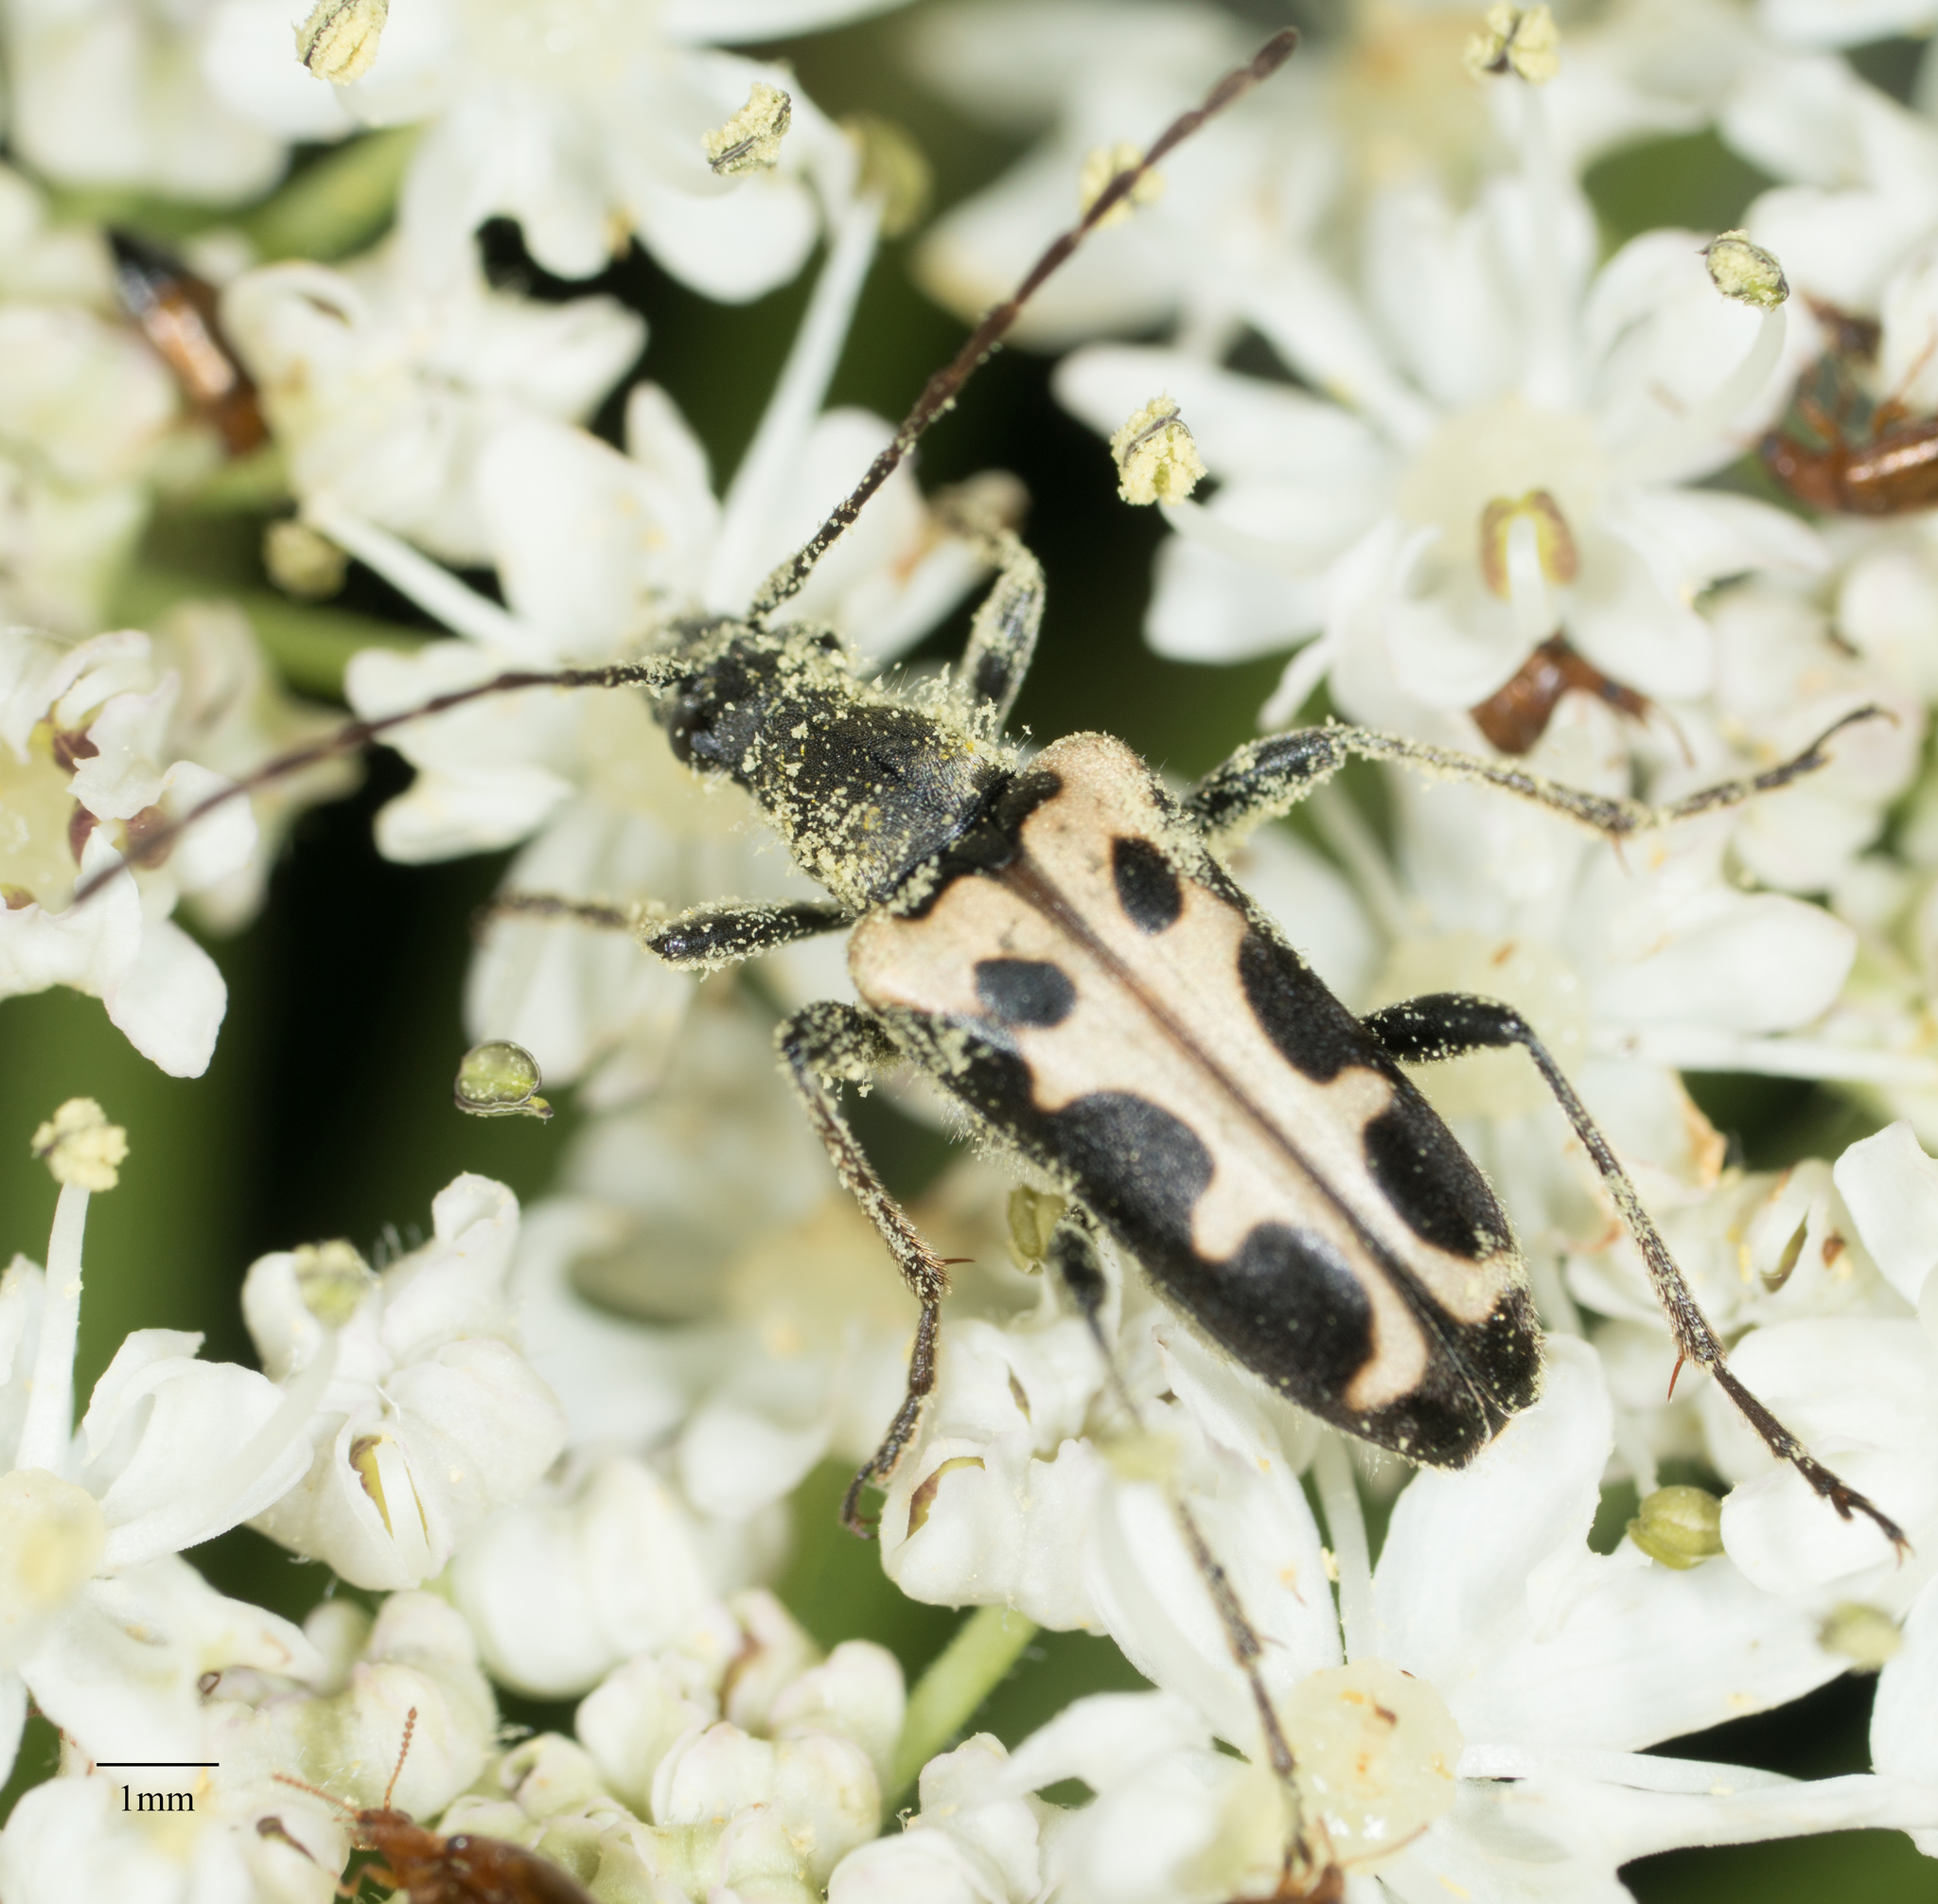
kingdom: Animalia
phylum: Arthropoda
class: Insecta
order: Coleoptera
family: Cerambycidae
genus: Evodinus
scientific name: Evodinus monticola
